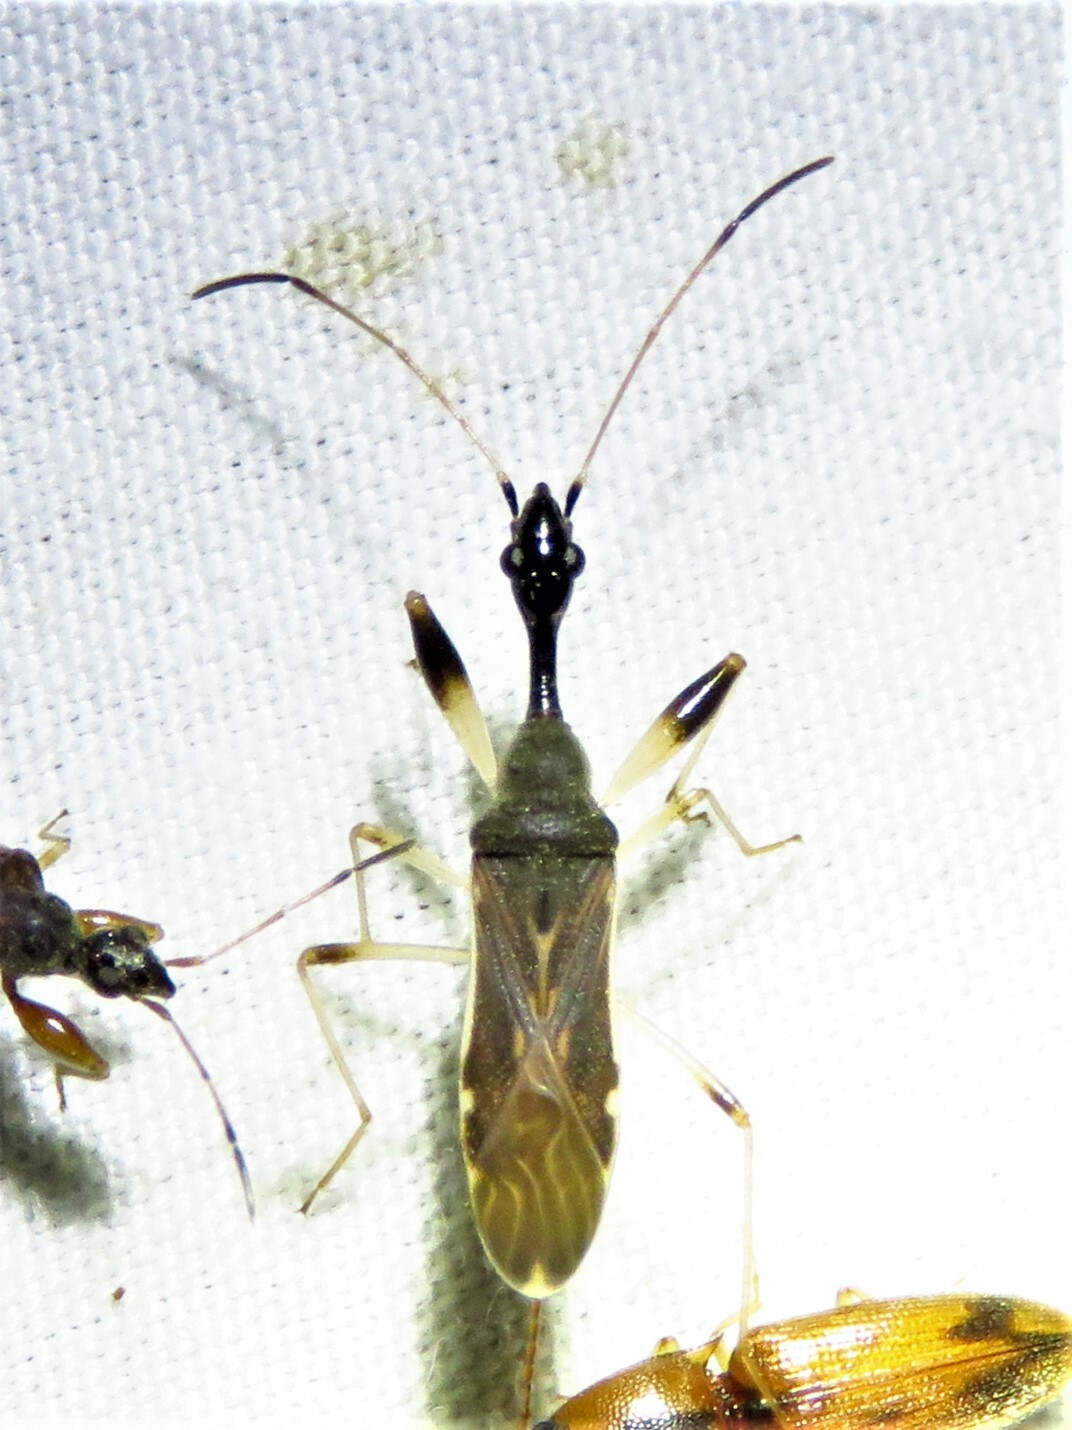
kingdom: Animalia
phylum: Arthropoda
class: Insecta
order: Hemiptera
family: Rhyparochromidae
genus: Myodocha
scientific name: Myodocha serripes
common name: Long-necked seed bug
